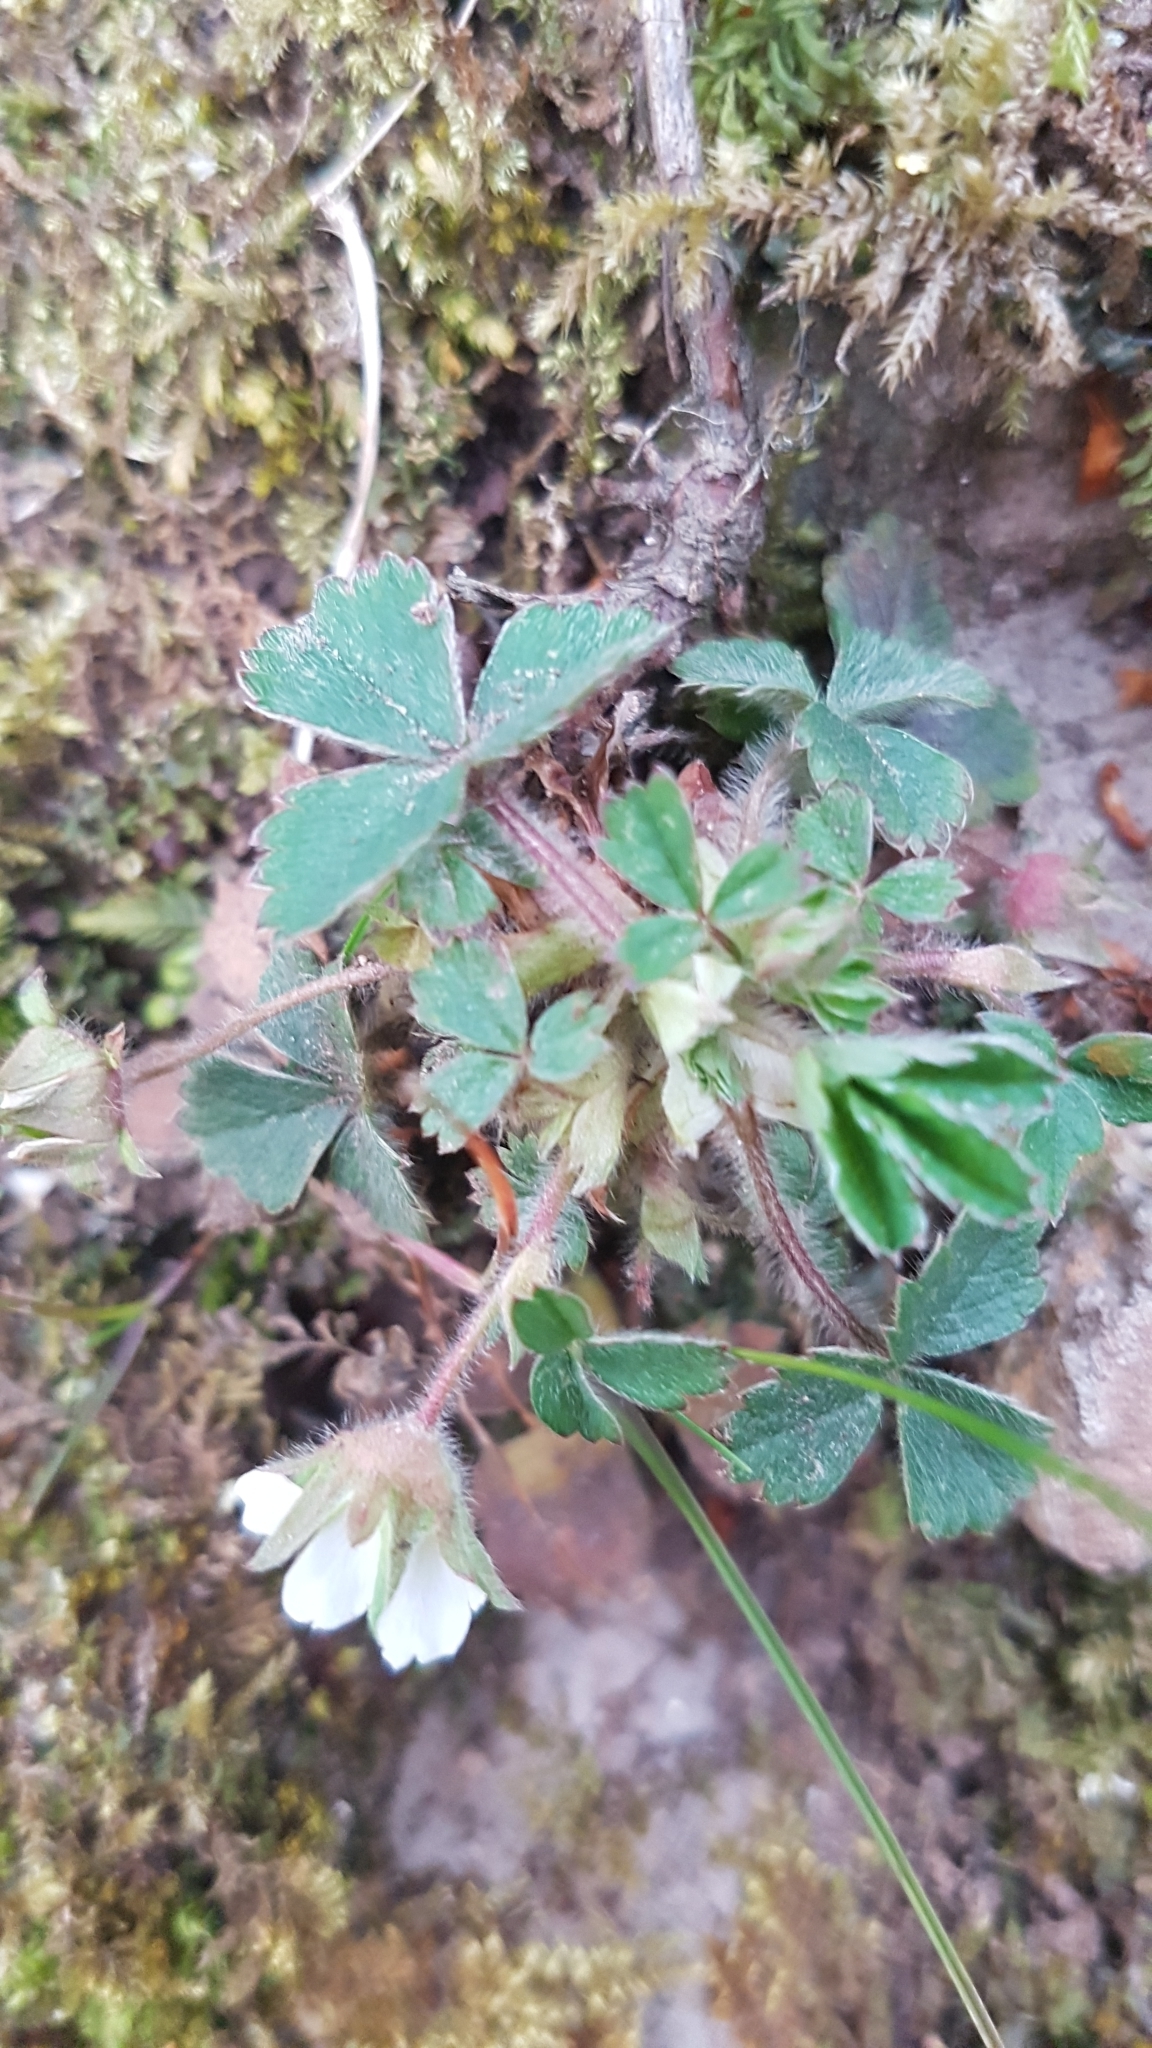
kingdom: Plantae
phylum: Tracheophyta
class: Magnoliopsida
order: Rosales
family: Rosaceae
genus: Potentilla
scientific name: Potentilla sterilis
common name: Barren strawberry
